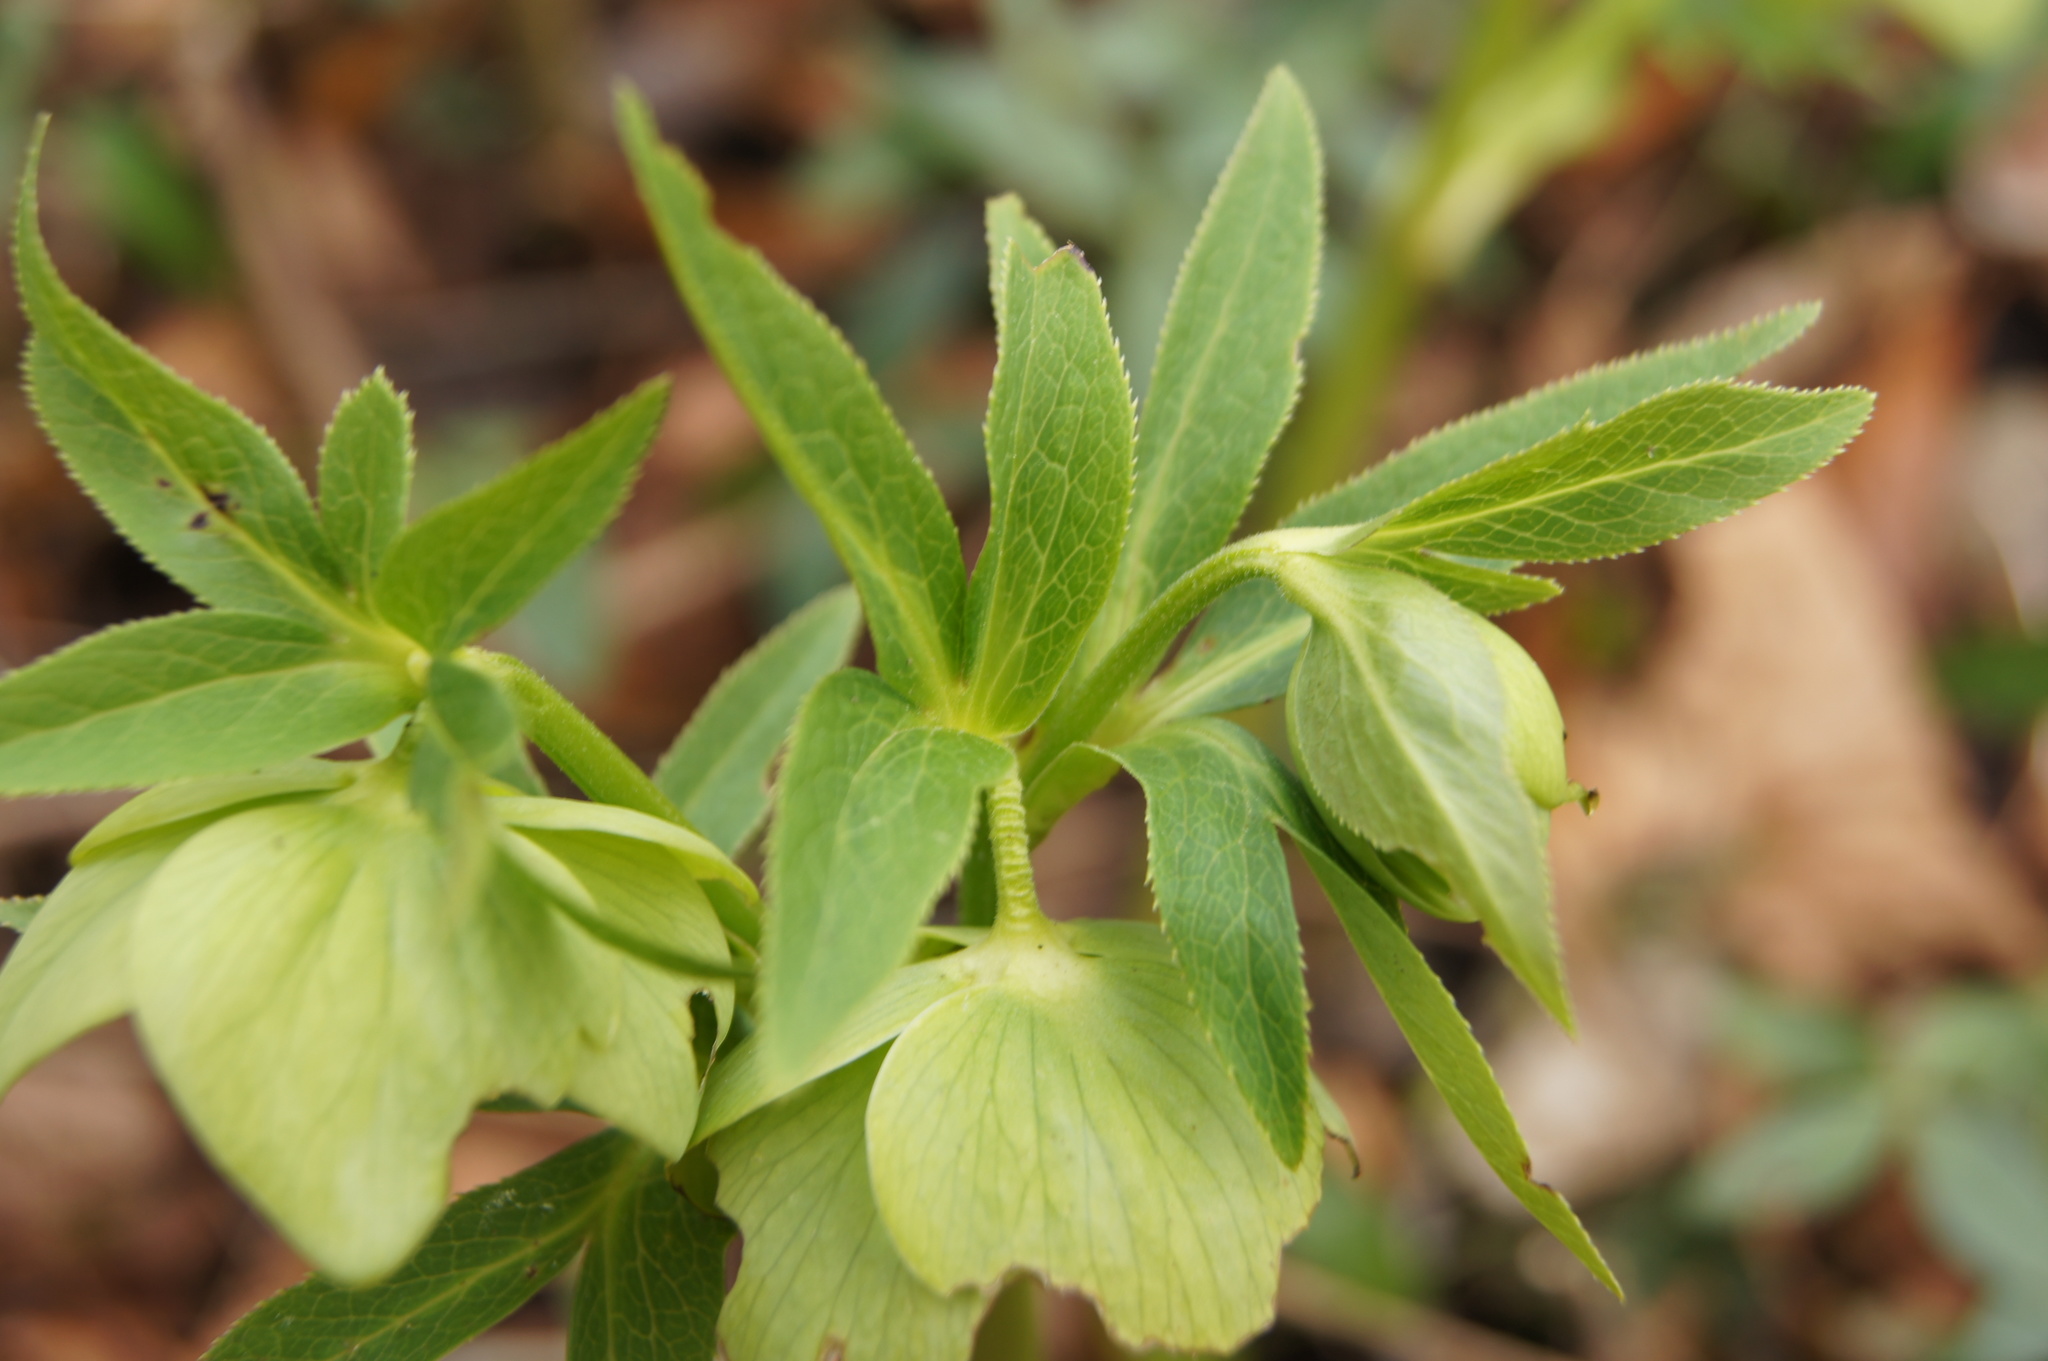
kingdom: Plantae
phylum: Tracheophyta
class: Magnoliopsida
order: Ranunculales
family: Ranunculaceae
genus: Helleborus
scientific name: Helleborus viridis
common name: Green hellebore
